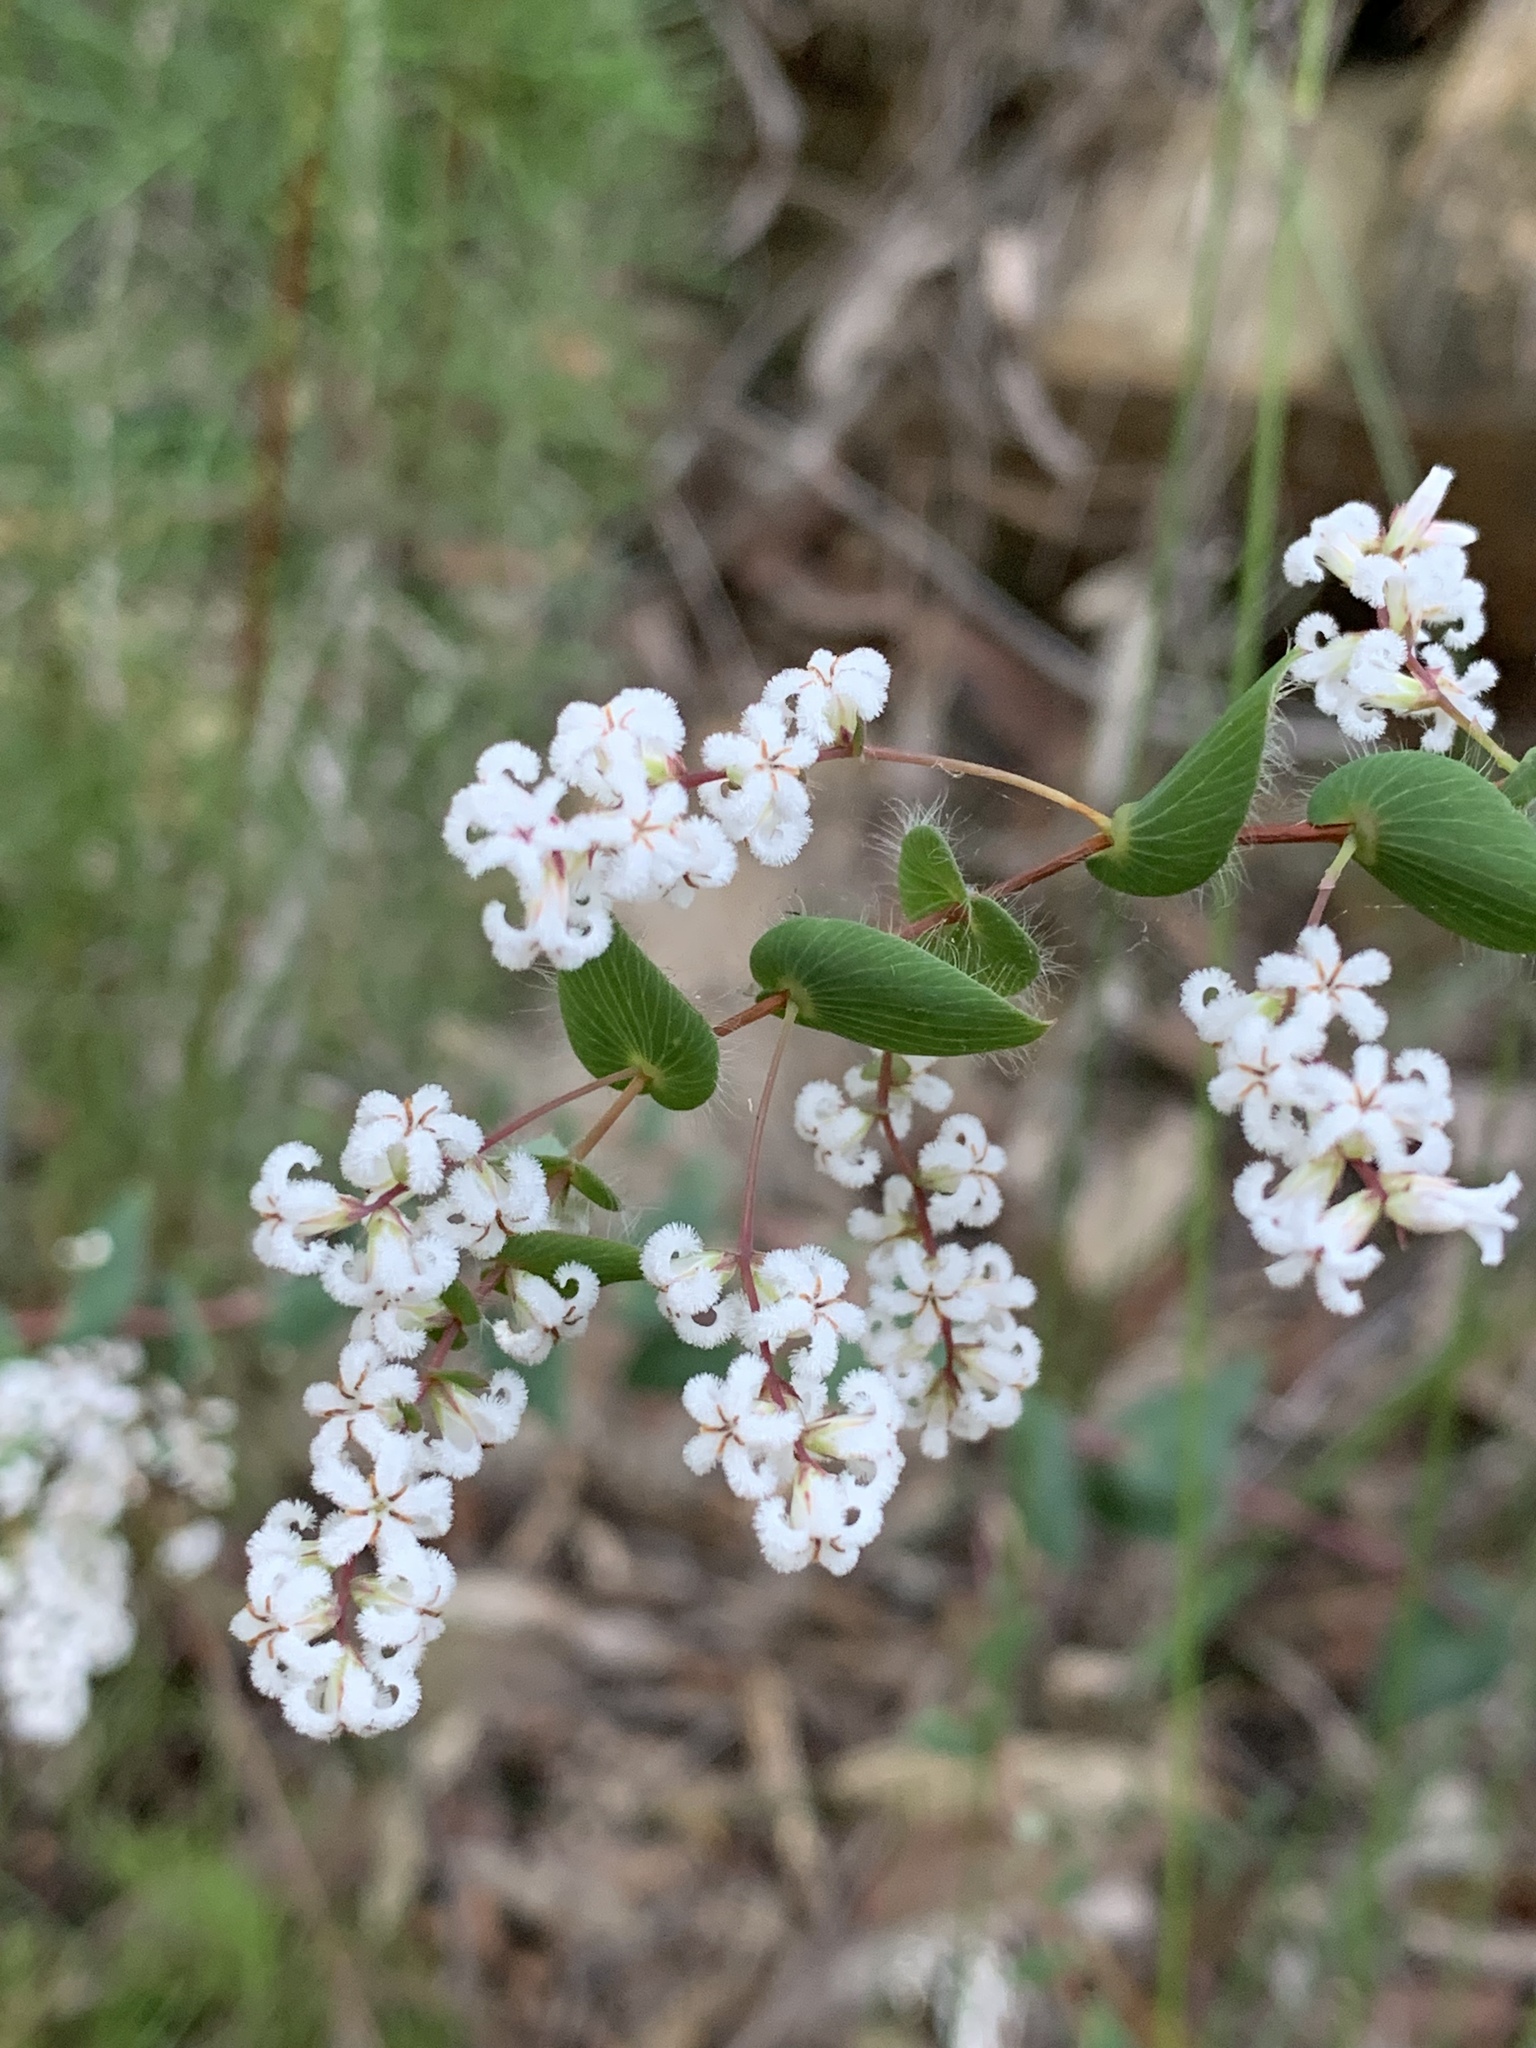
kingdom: Plantae
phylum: Tracheophyta
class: Magnoliopsida
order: Ericales
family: Ericaceae
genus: Leucopogon
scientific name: Leucopogon amplexicaulis
